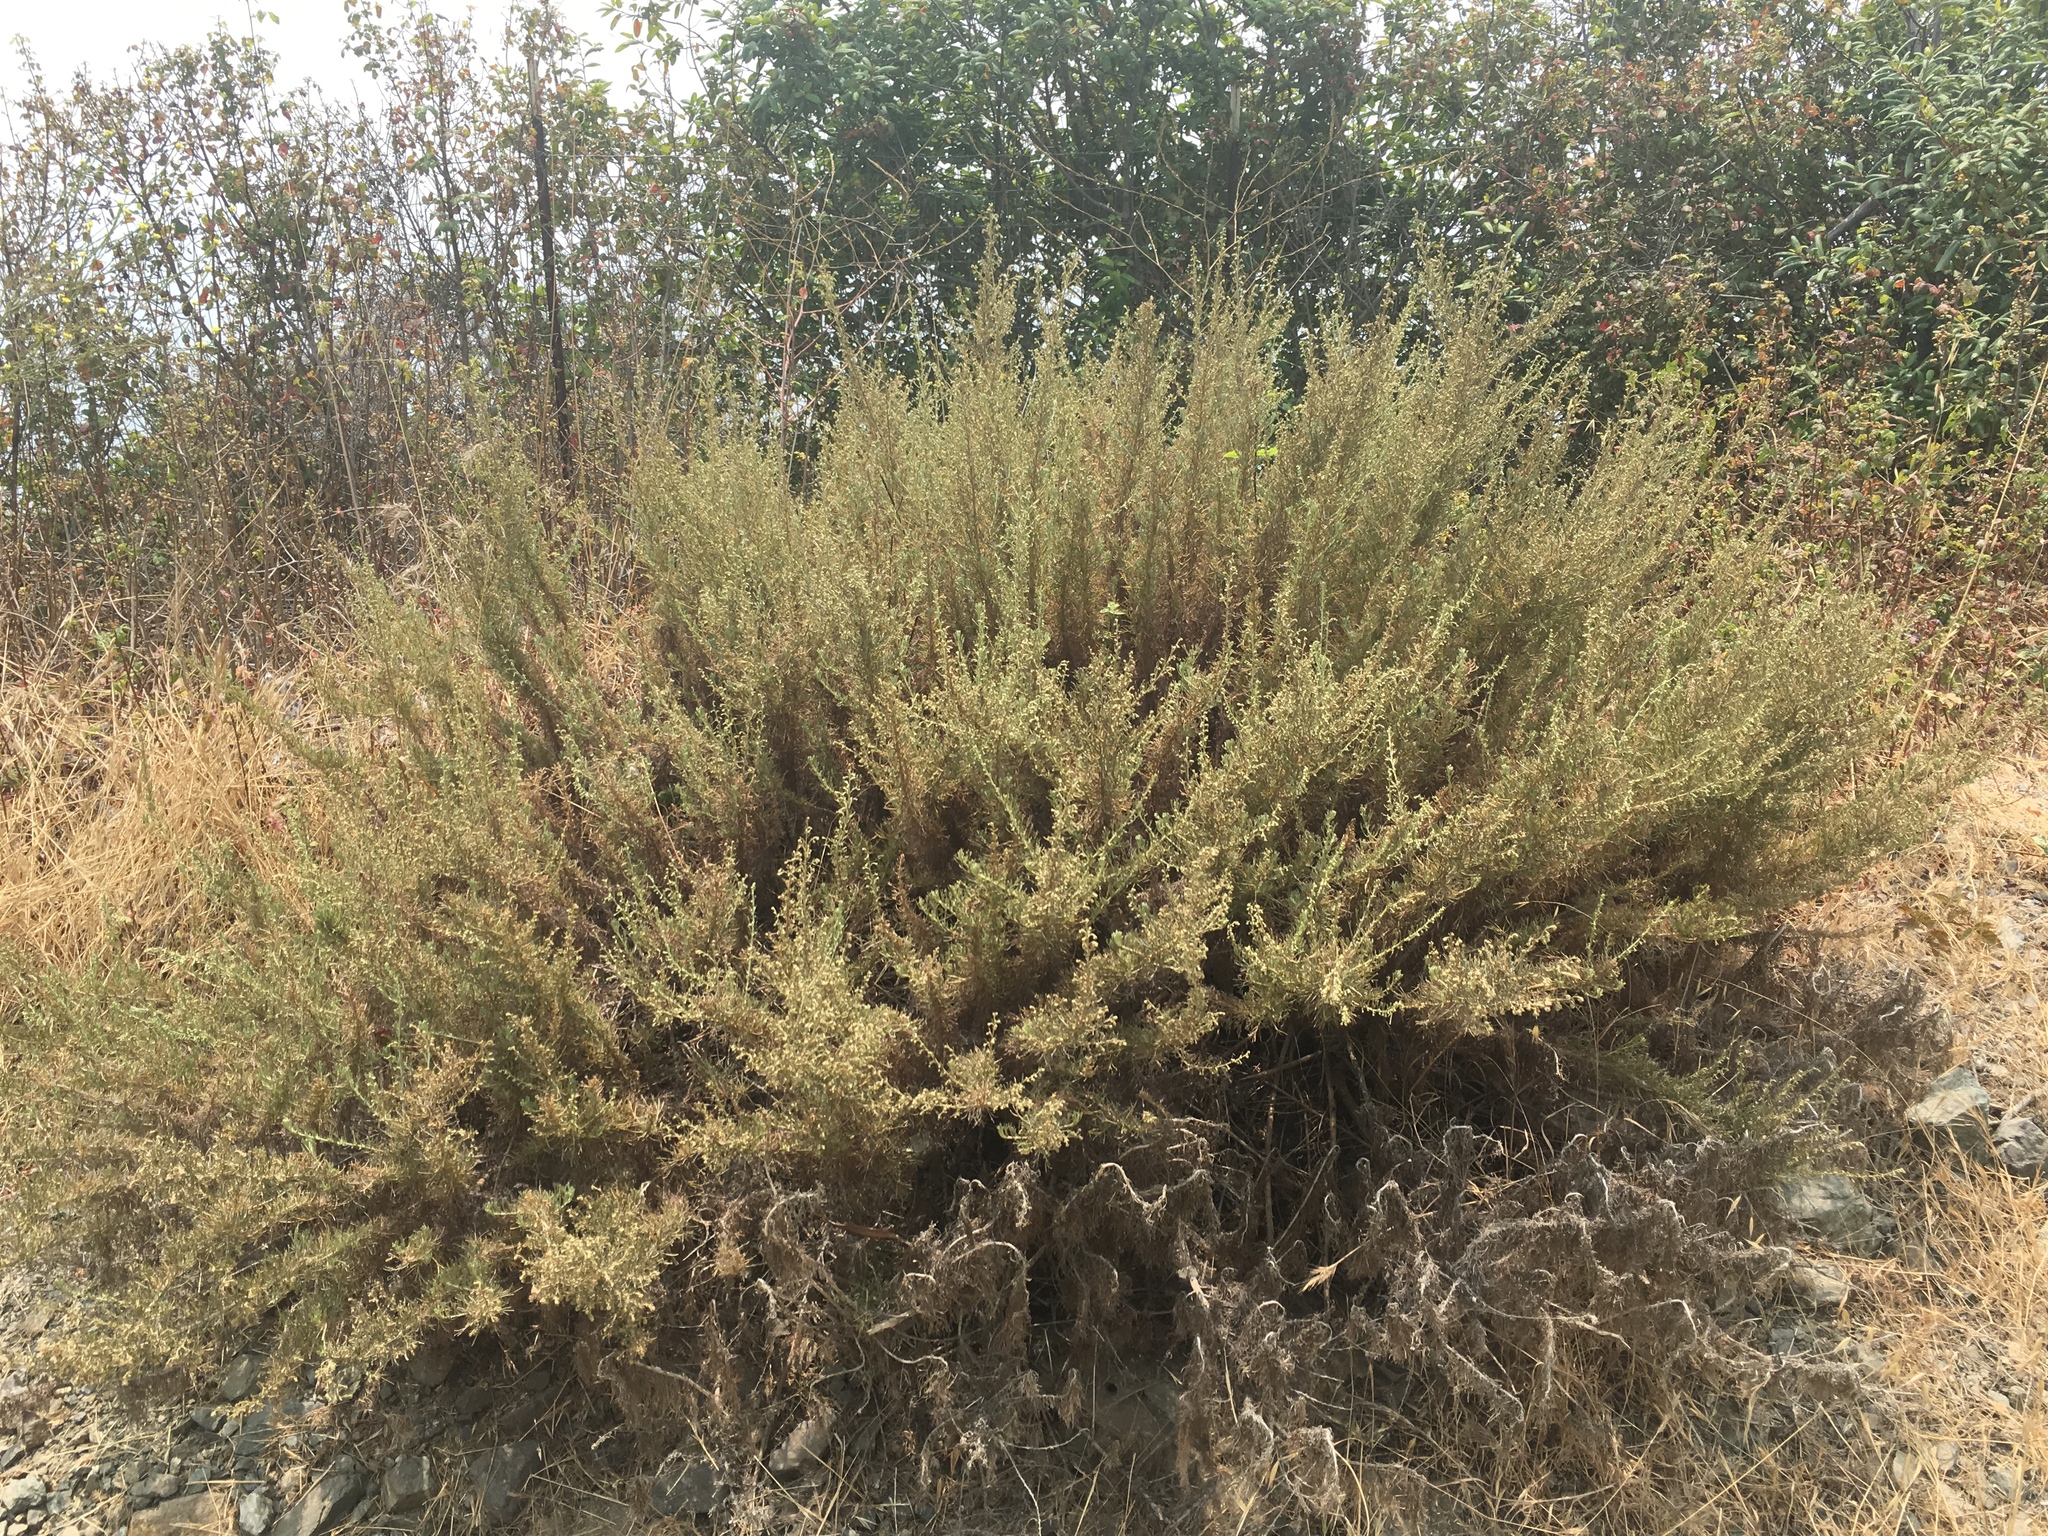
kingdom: Plantae
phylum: Tracheophyta
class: Magnoliopsida
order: Asterales
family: Asteraceae
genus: Artemisia
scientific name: Artemisia californica
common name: California sagebrush
